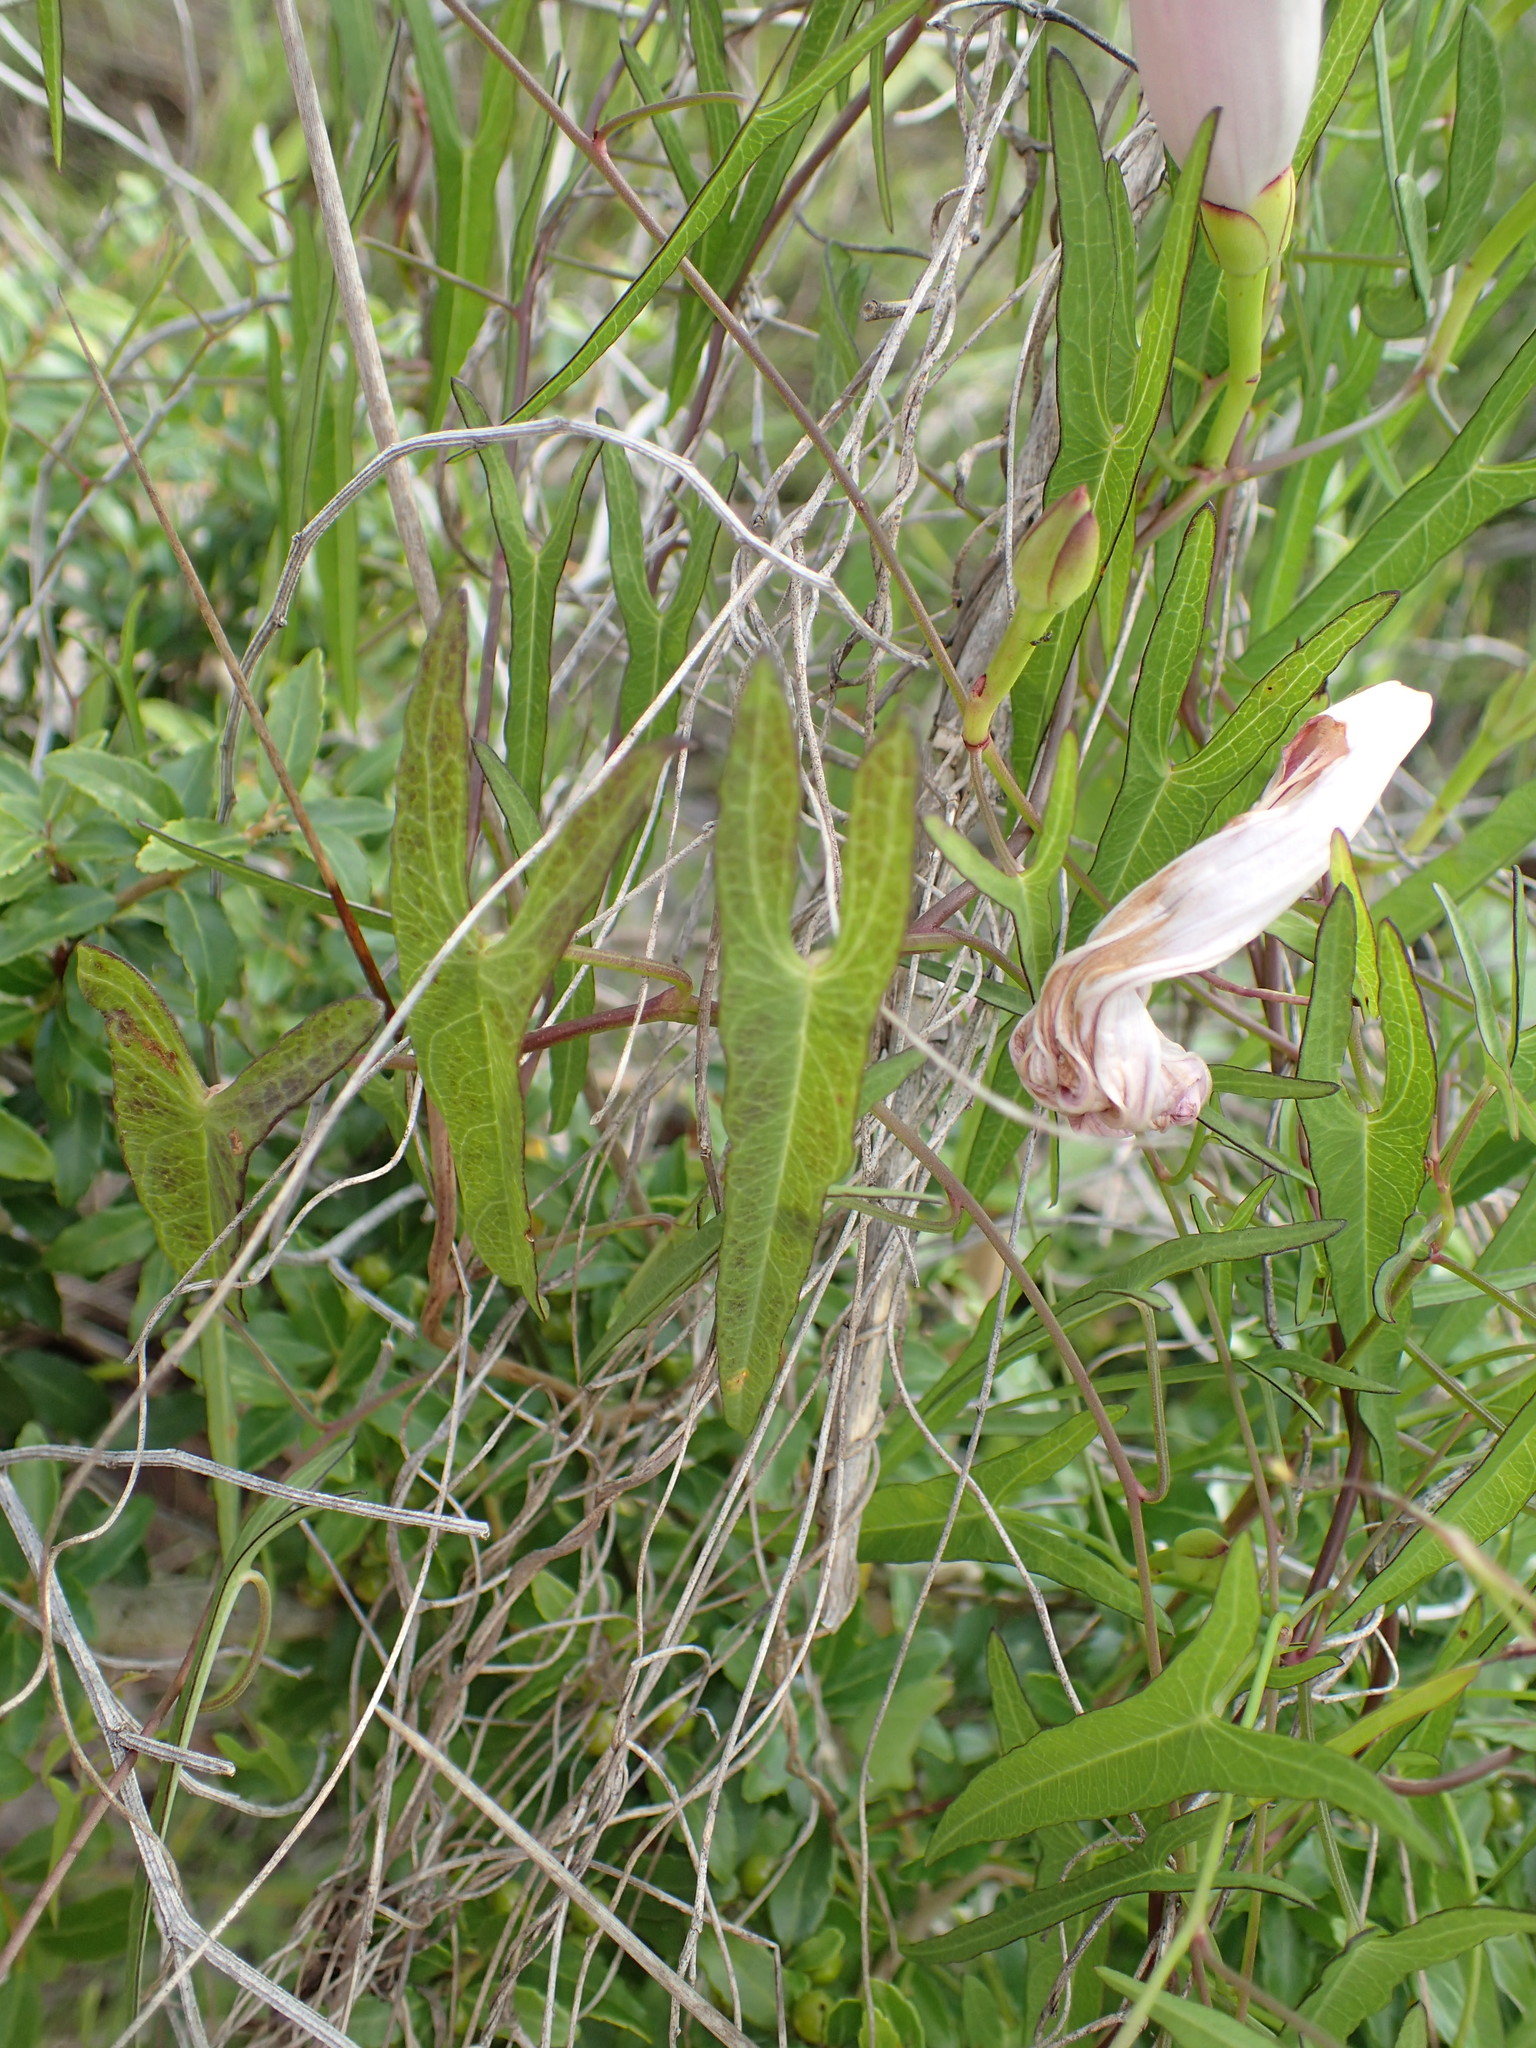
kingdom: Plantae
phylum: Tracheophyta
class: Magnoliopsida
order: Solanales
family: Convolvulaceae
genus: Ipomoea
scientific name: Ipomoea sagittata
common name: Saltmarsh morning glory
